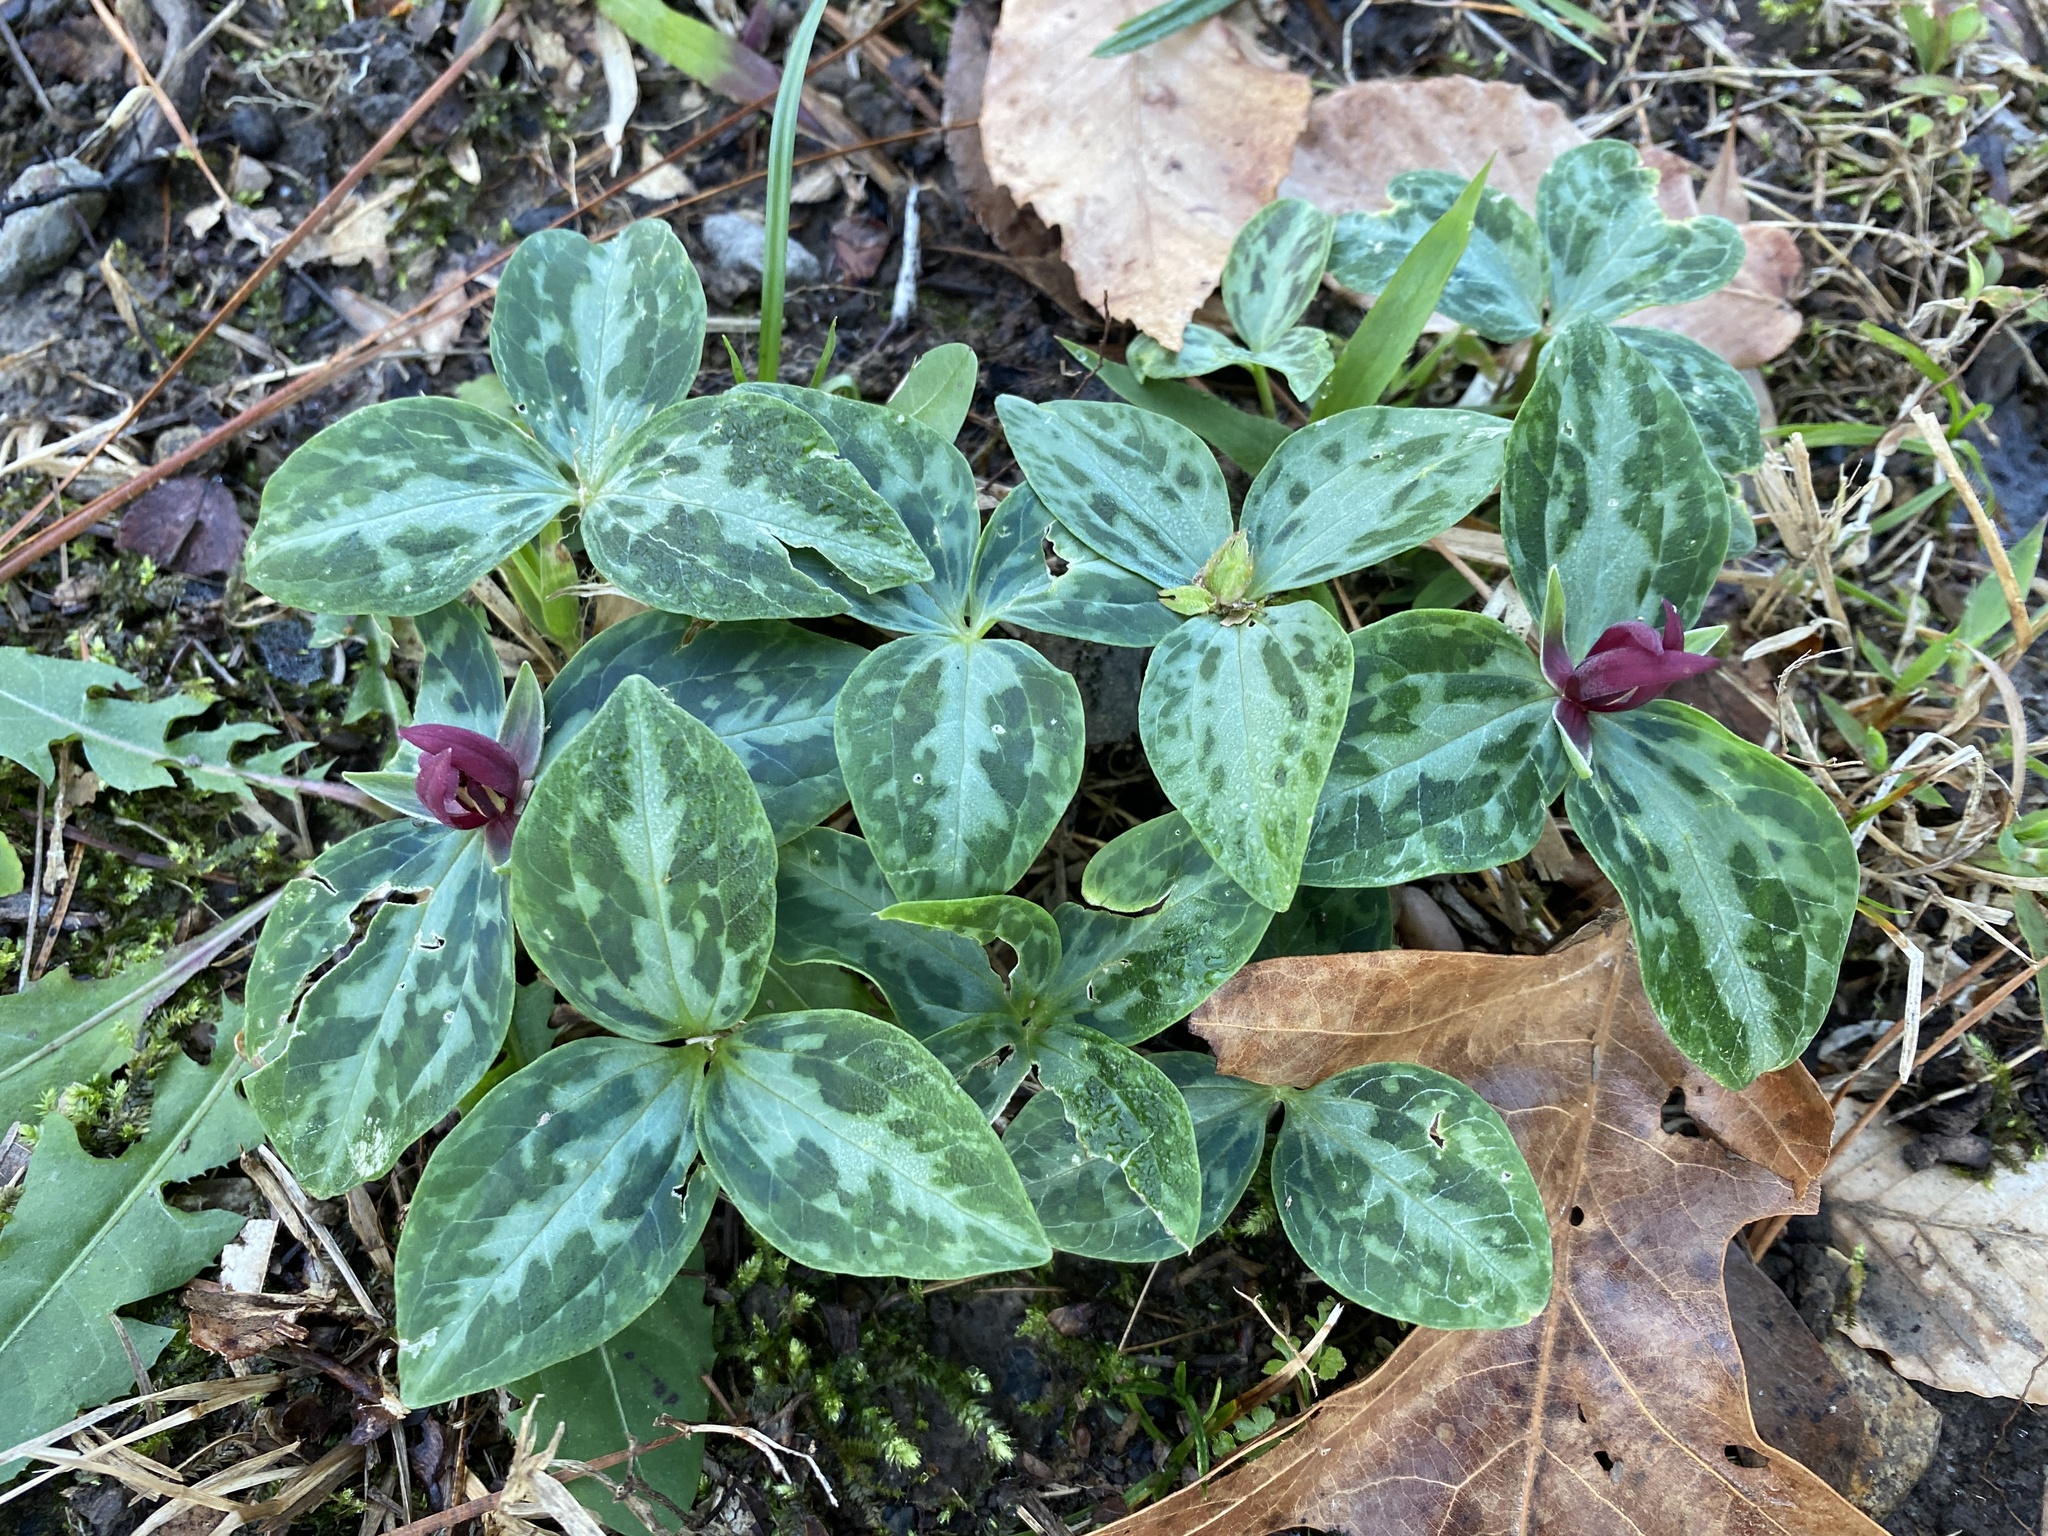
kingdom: Plantae
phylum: Tracheophyta
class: Liliopsida
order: Liliales
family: Melanthiaceae
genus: Trillium
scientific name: Trillium foetidissimum
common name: Mississippi river trillium
